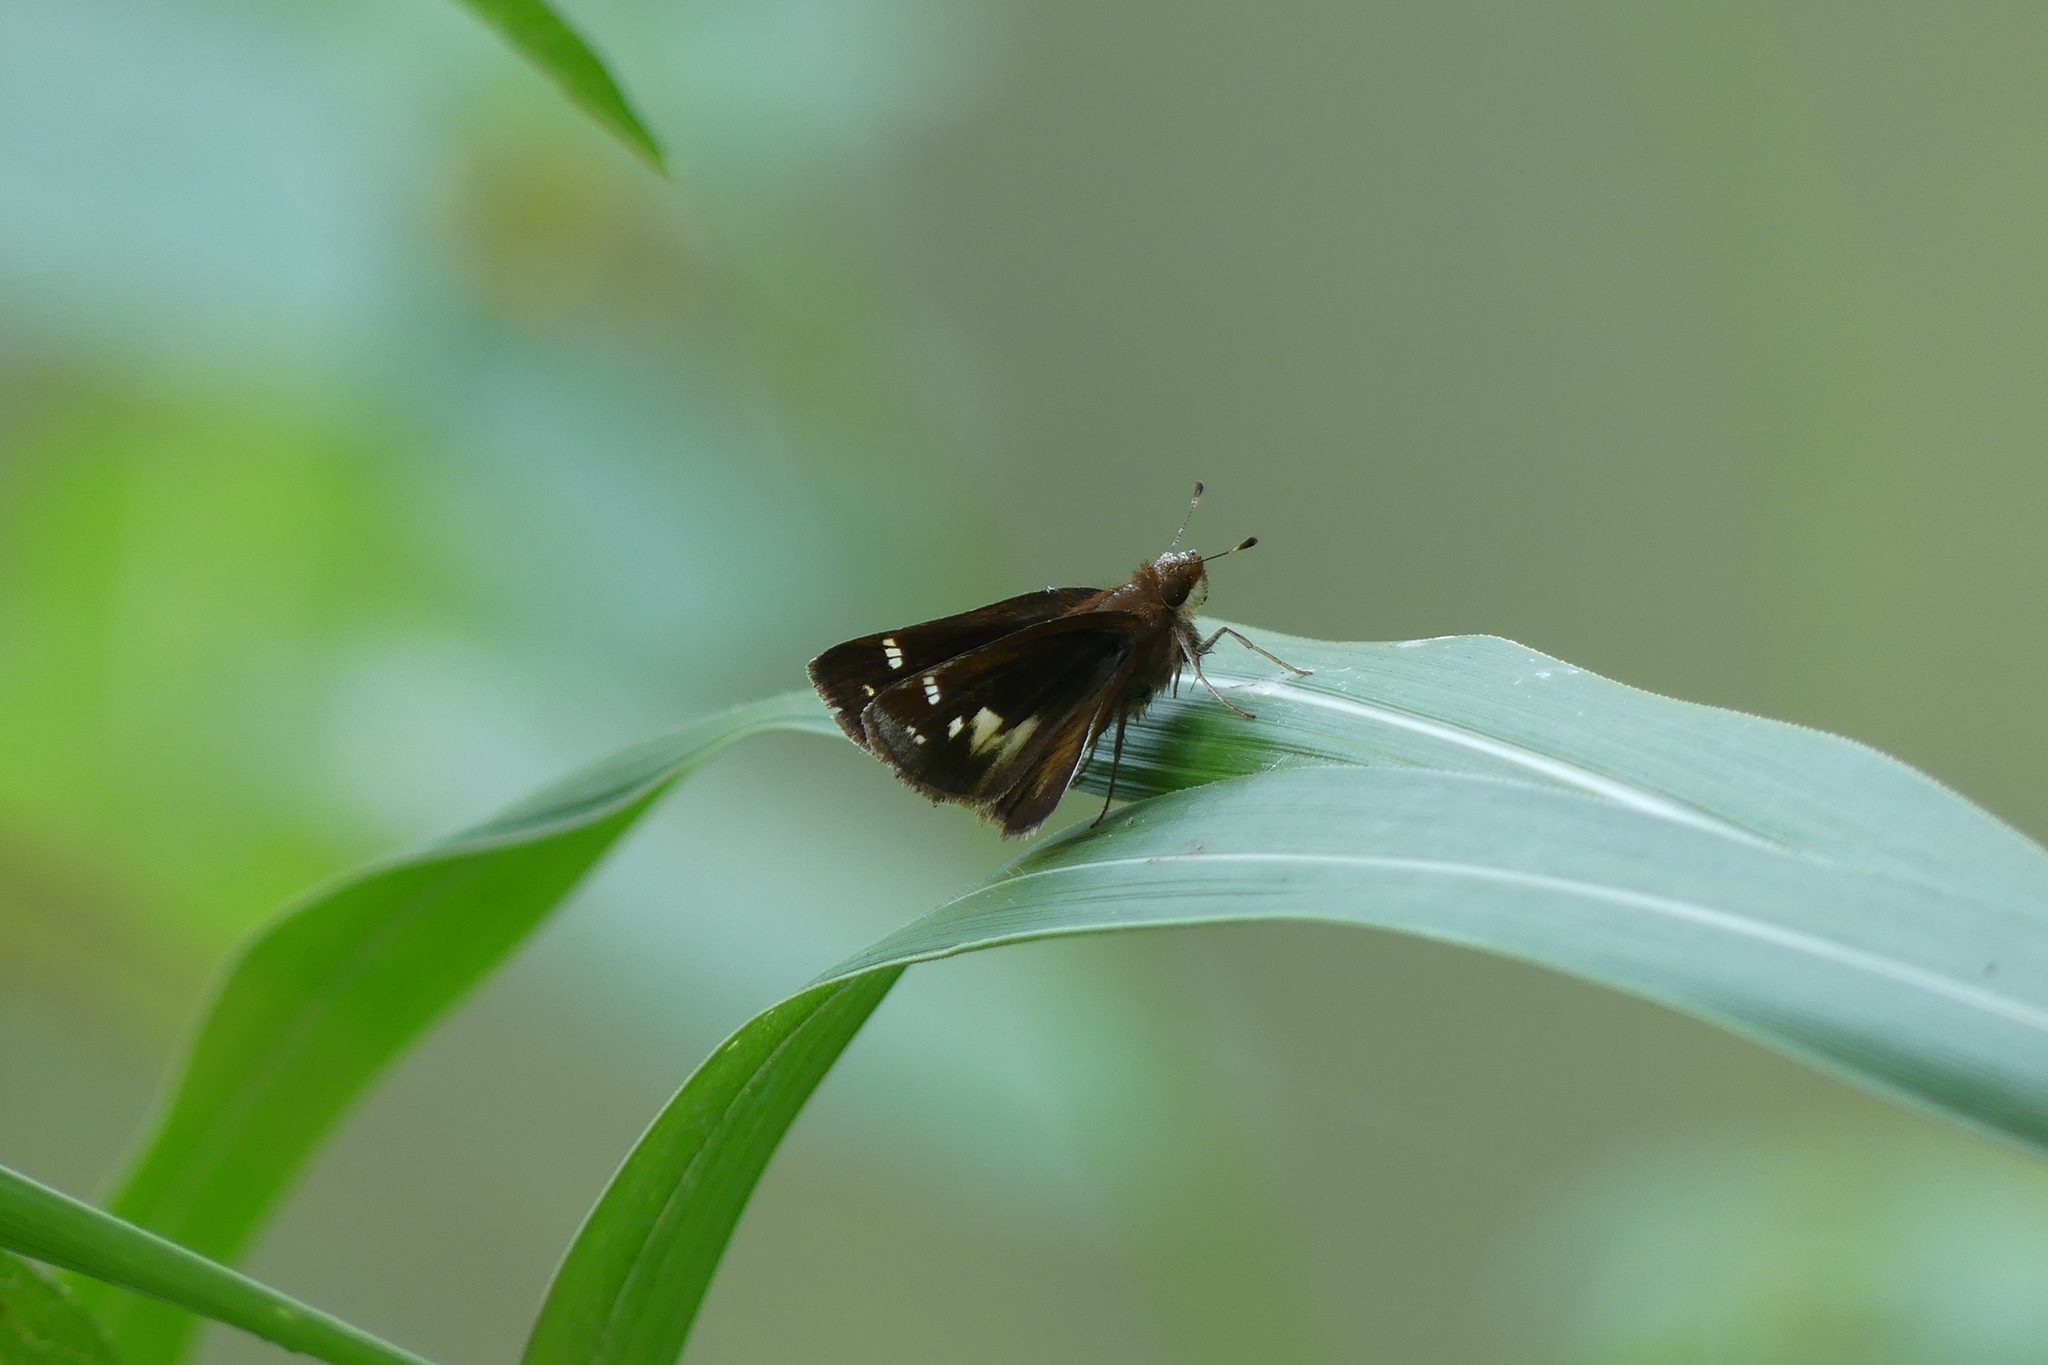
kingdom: Animalia
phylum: Arthropoda
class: Insecta
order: Lepidoptera
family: Hesperiidae
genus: Lon
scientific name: Lon zabulon
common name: Zabulon skipper
